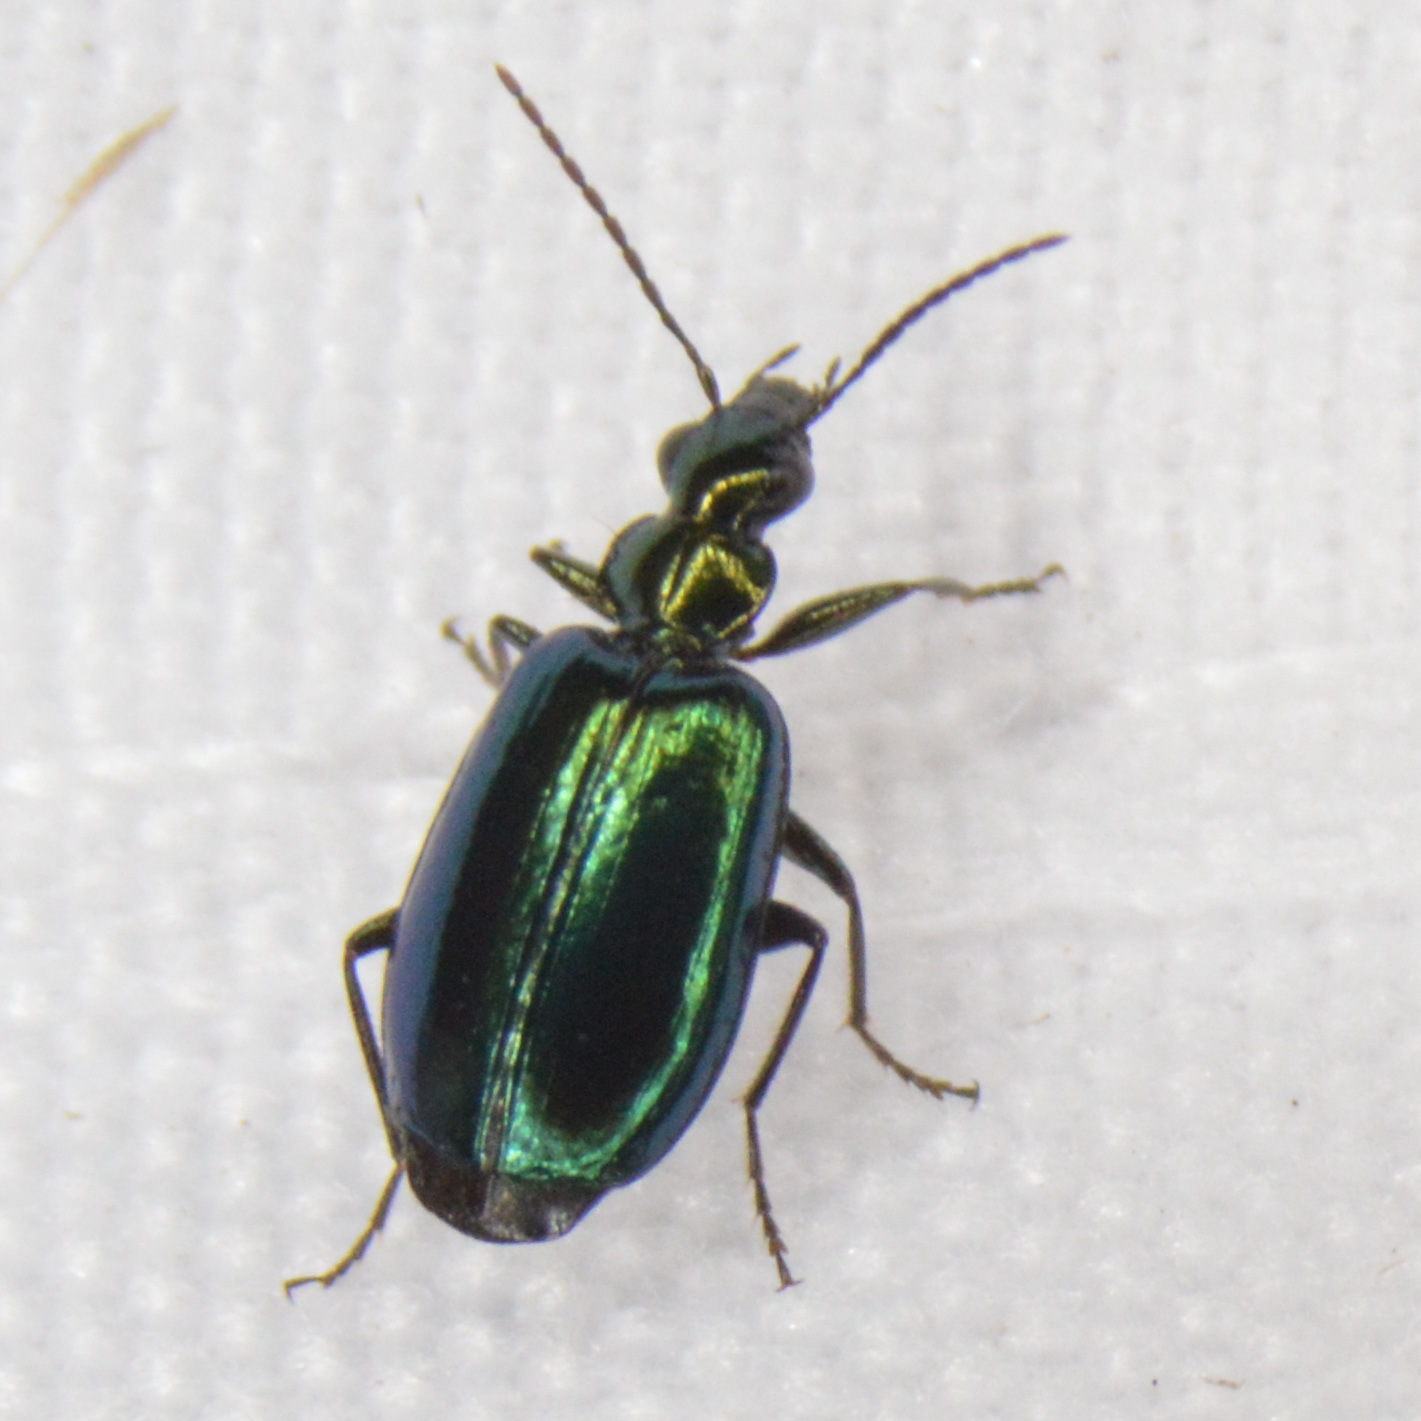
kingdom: Animalia
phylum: Arthropoda
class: Insecta
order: Coleoptera
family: Carabidae
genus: Lebia
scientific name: Lebia viridis
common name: Flower lebia beetle
